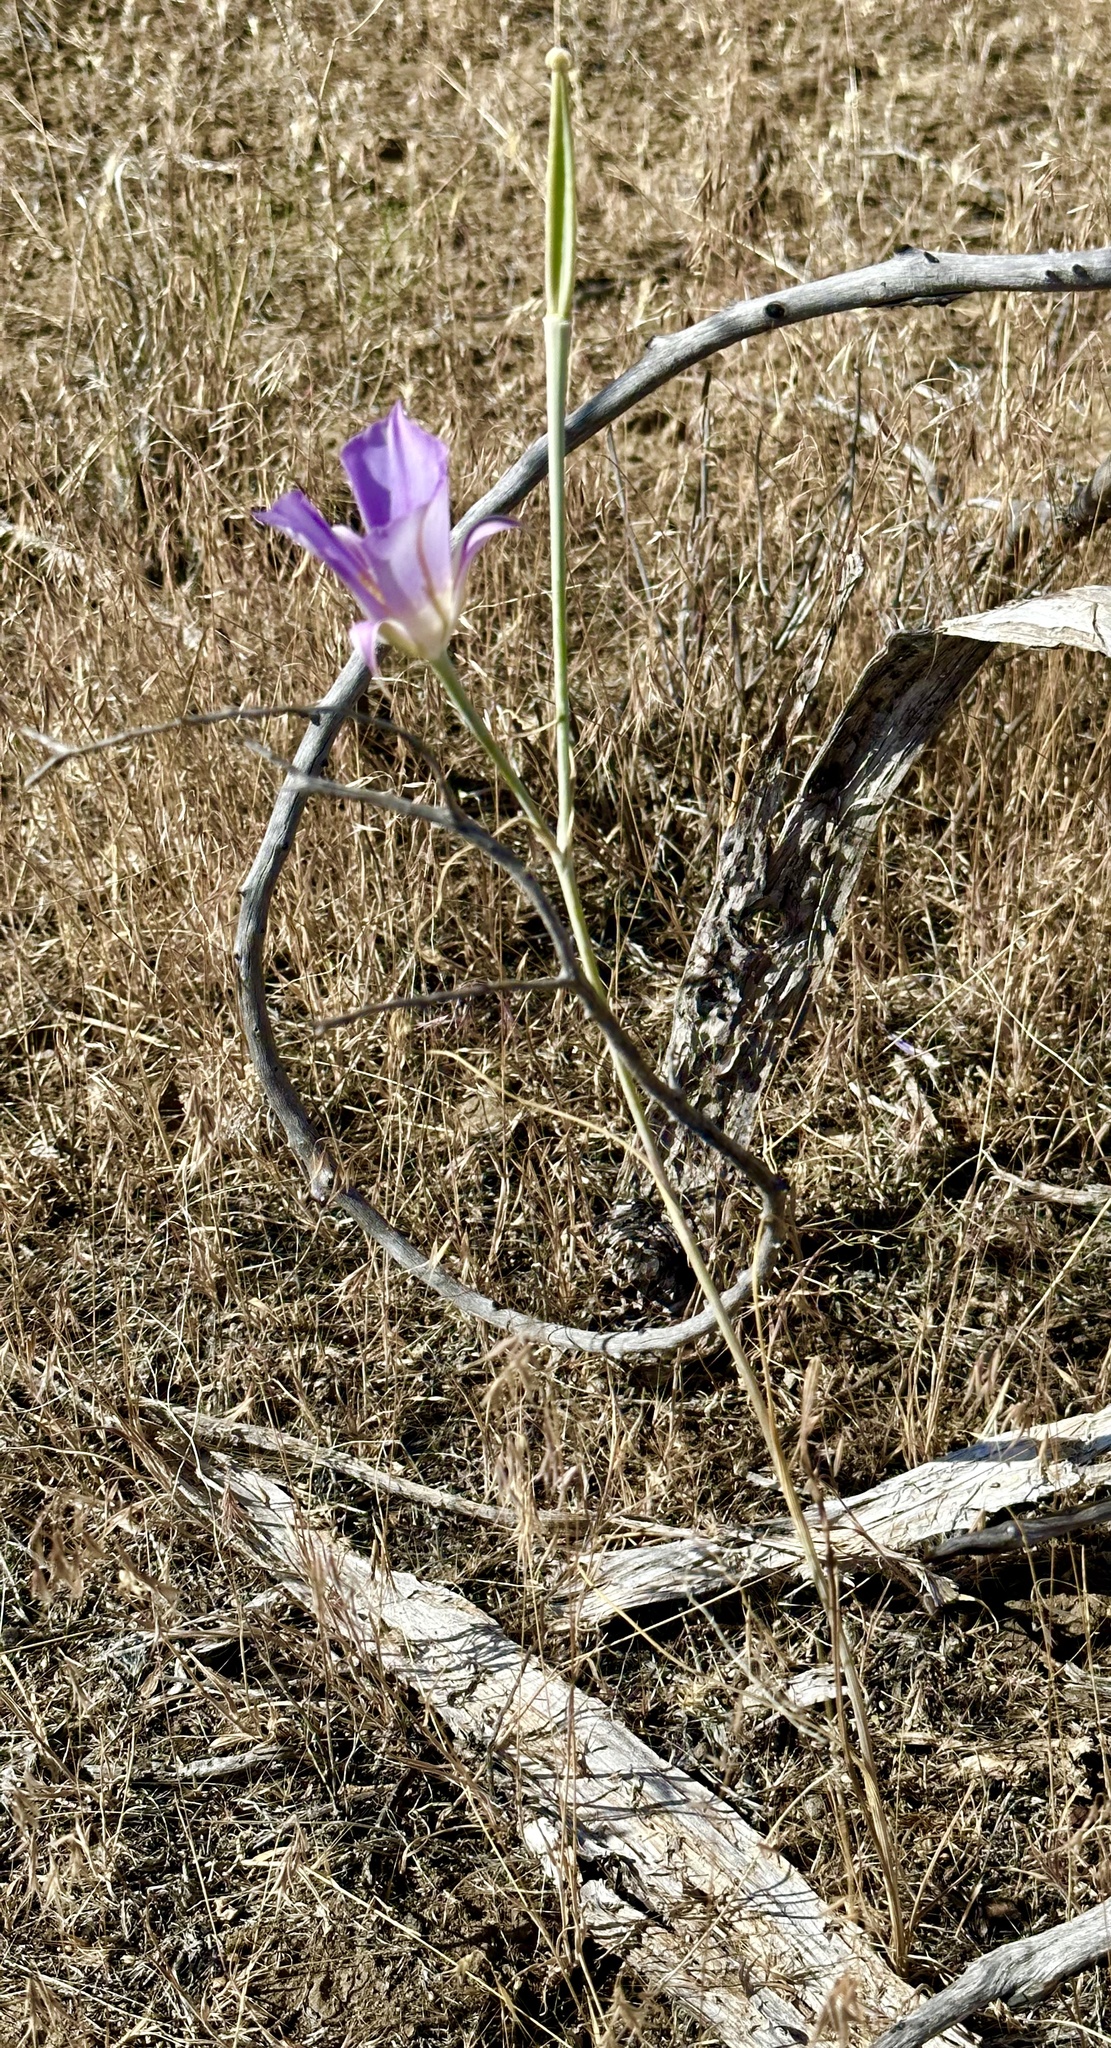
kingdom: Plantae
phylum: Tracheophyta
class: Liliopsida
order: Liliales
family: Liliaceae
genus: Calochortus
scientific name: Calochortus macrocarpus
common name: Green-band mariposa lily
